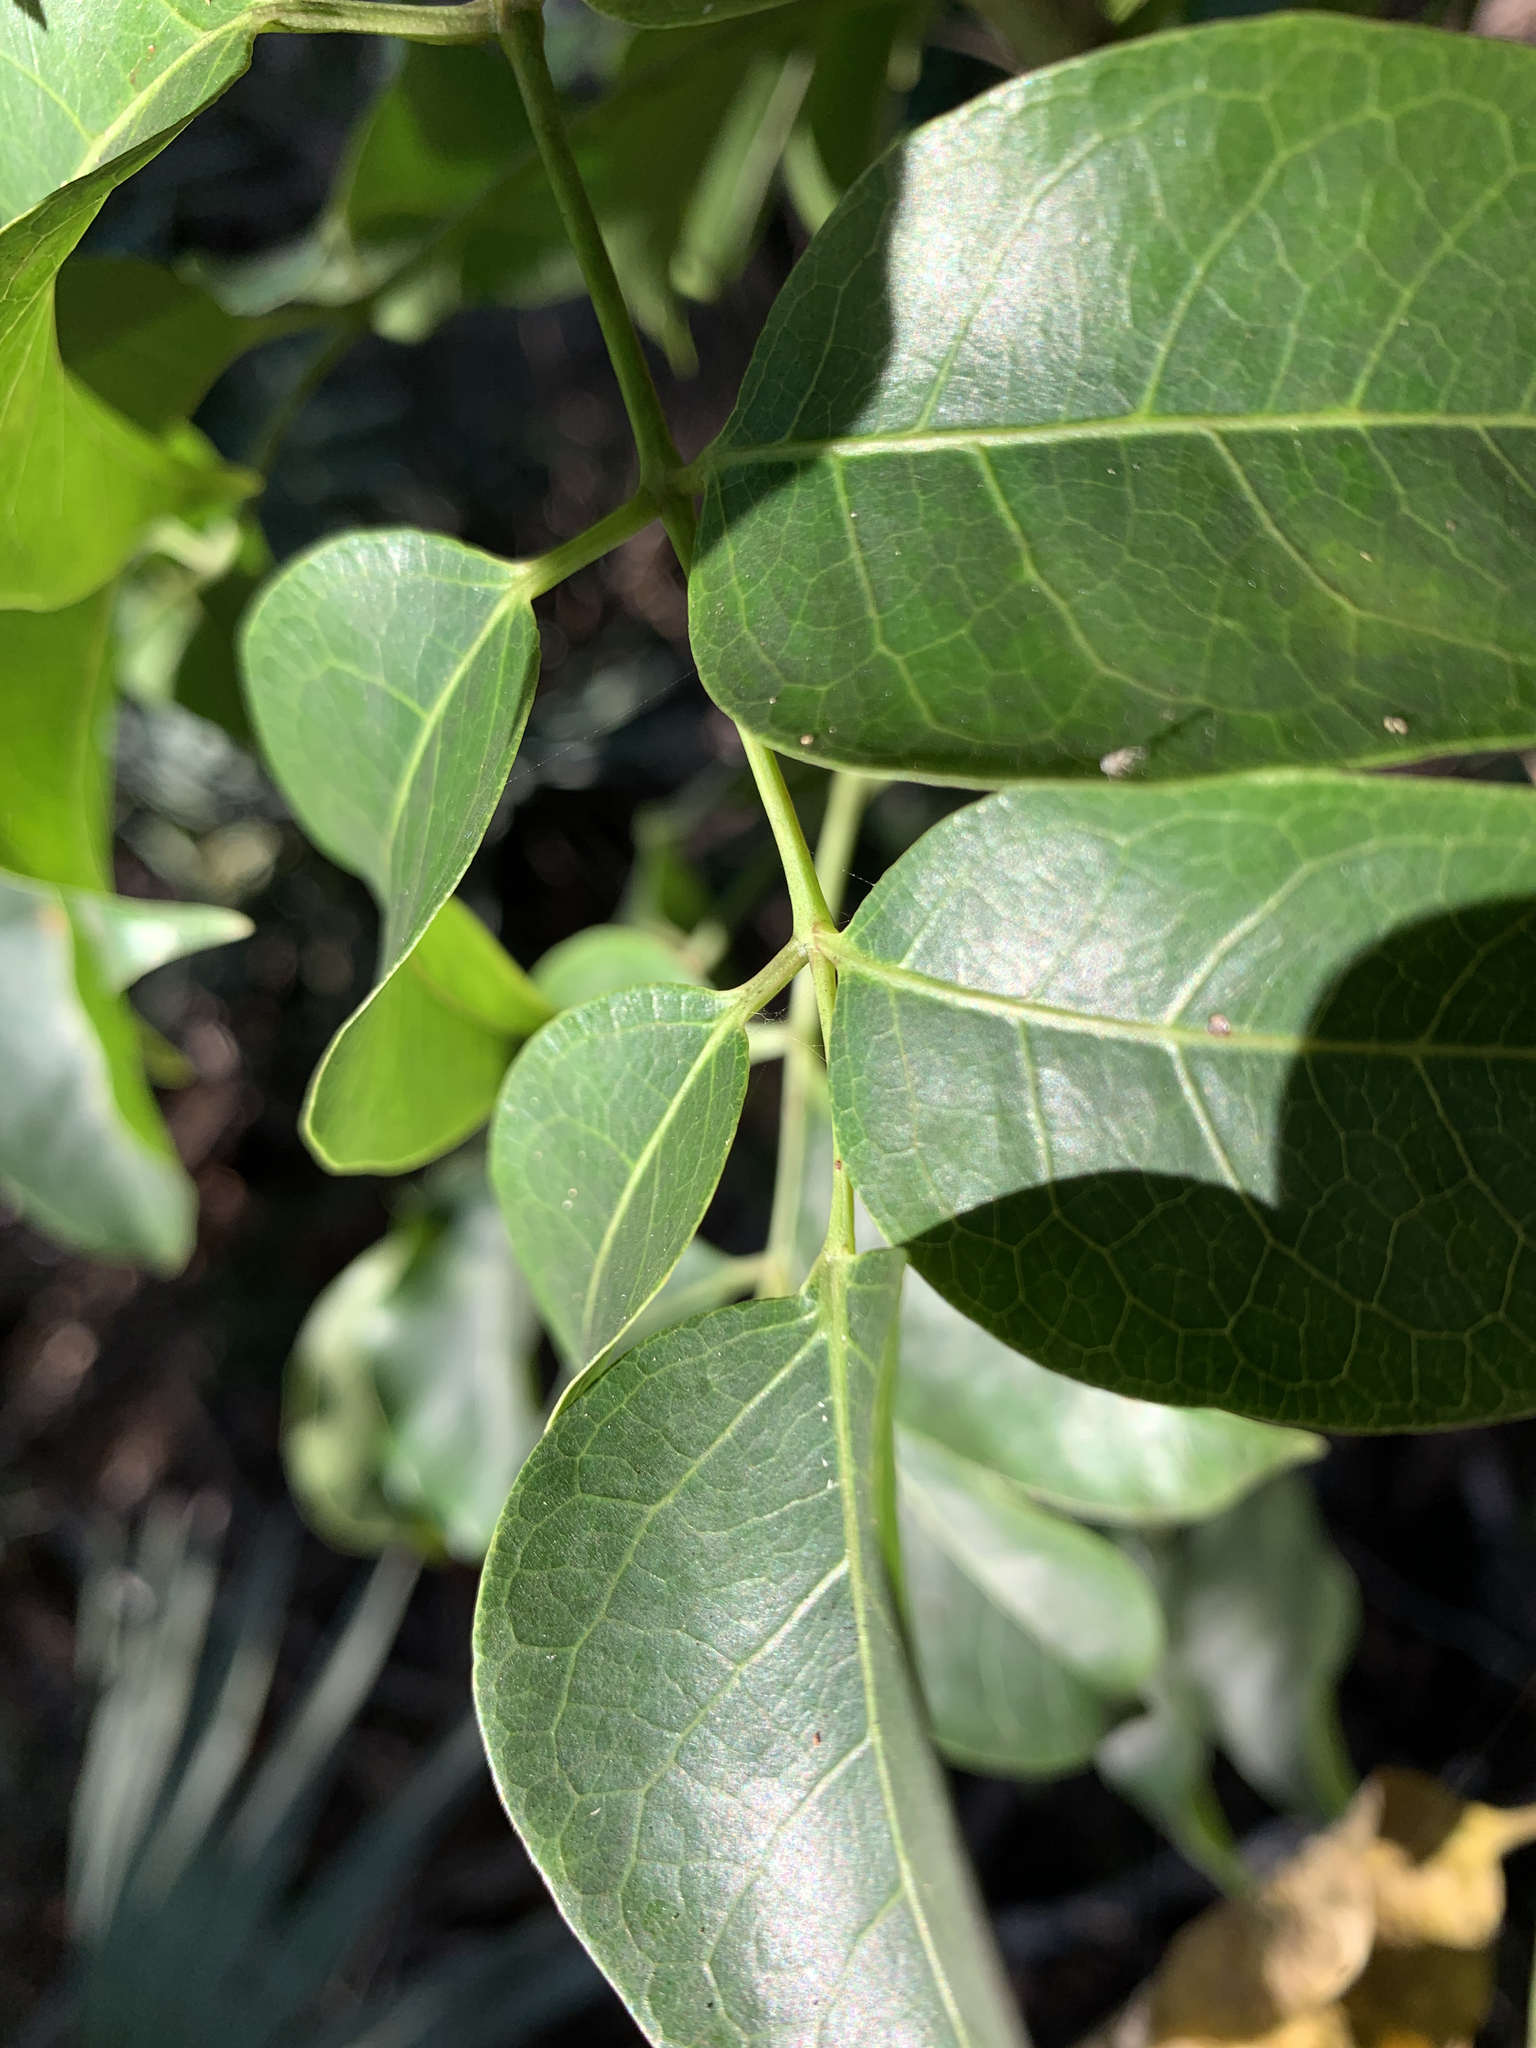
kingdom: Plantae
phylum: Tracheophyta
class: Magnoliopsida
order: Sapindales
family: Burseraceae
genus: Bursera
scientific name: Bursera simaruba
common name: Turpentine tree
